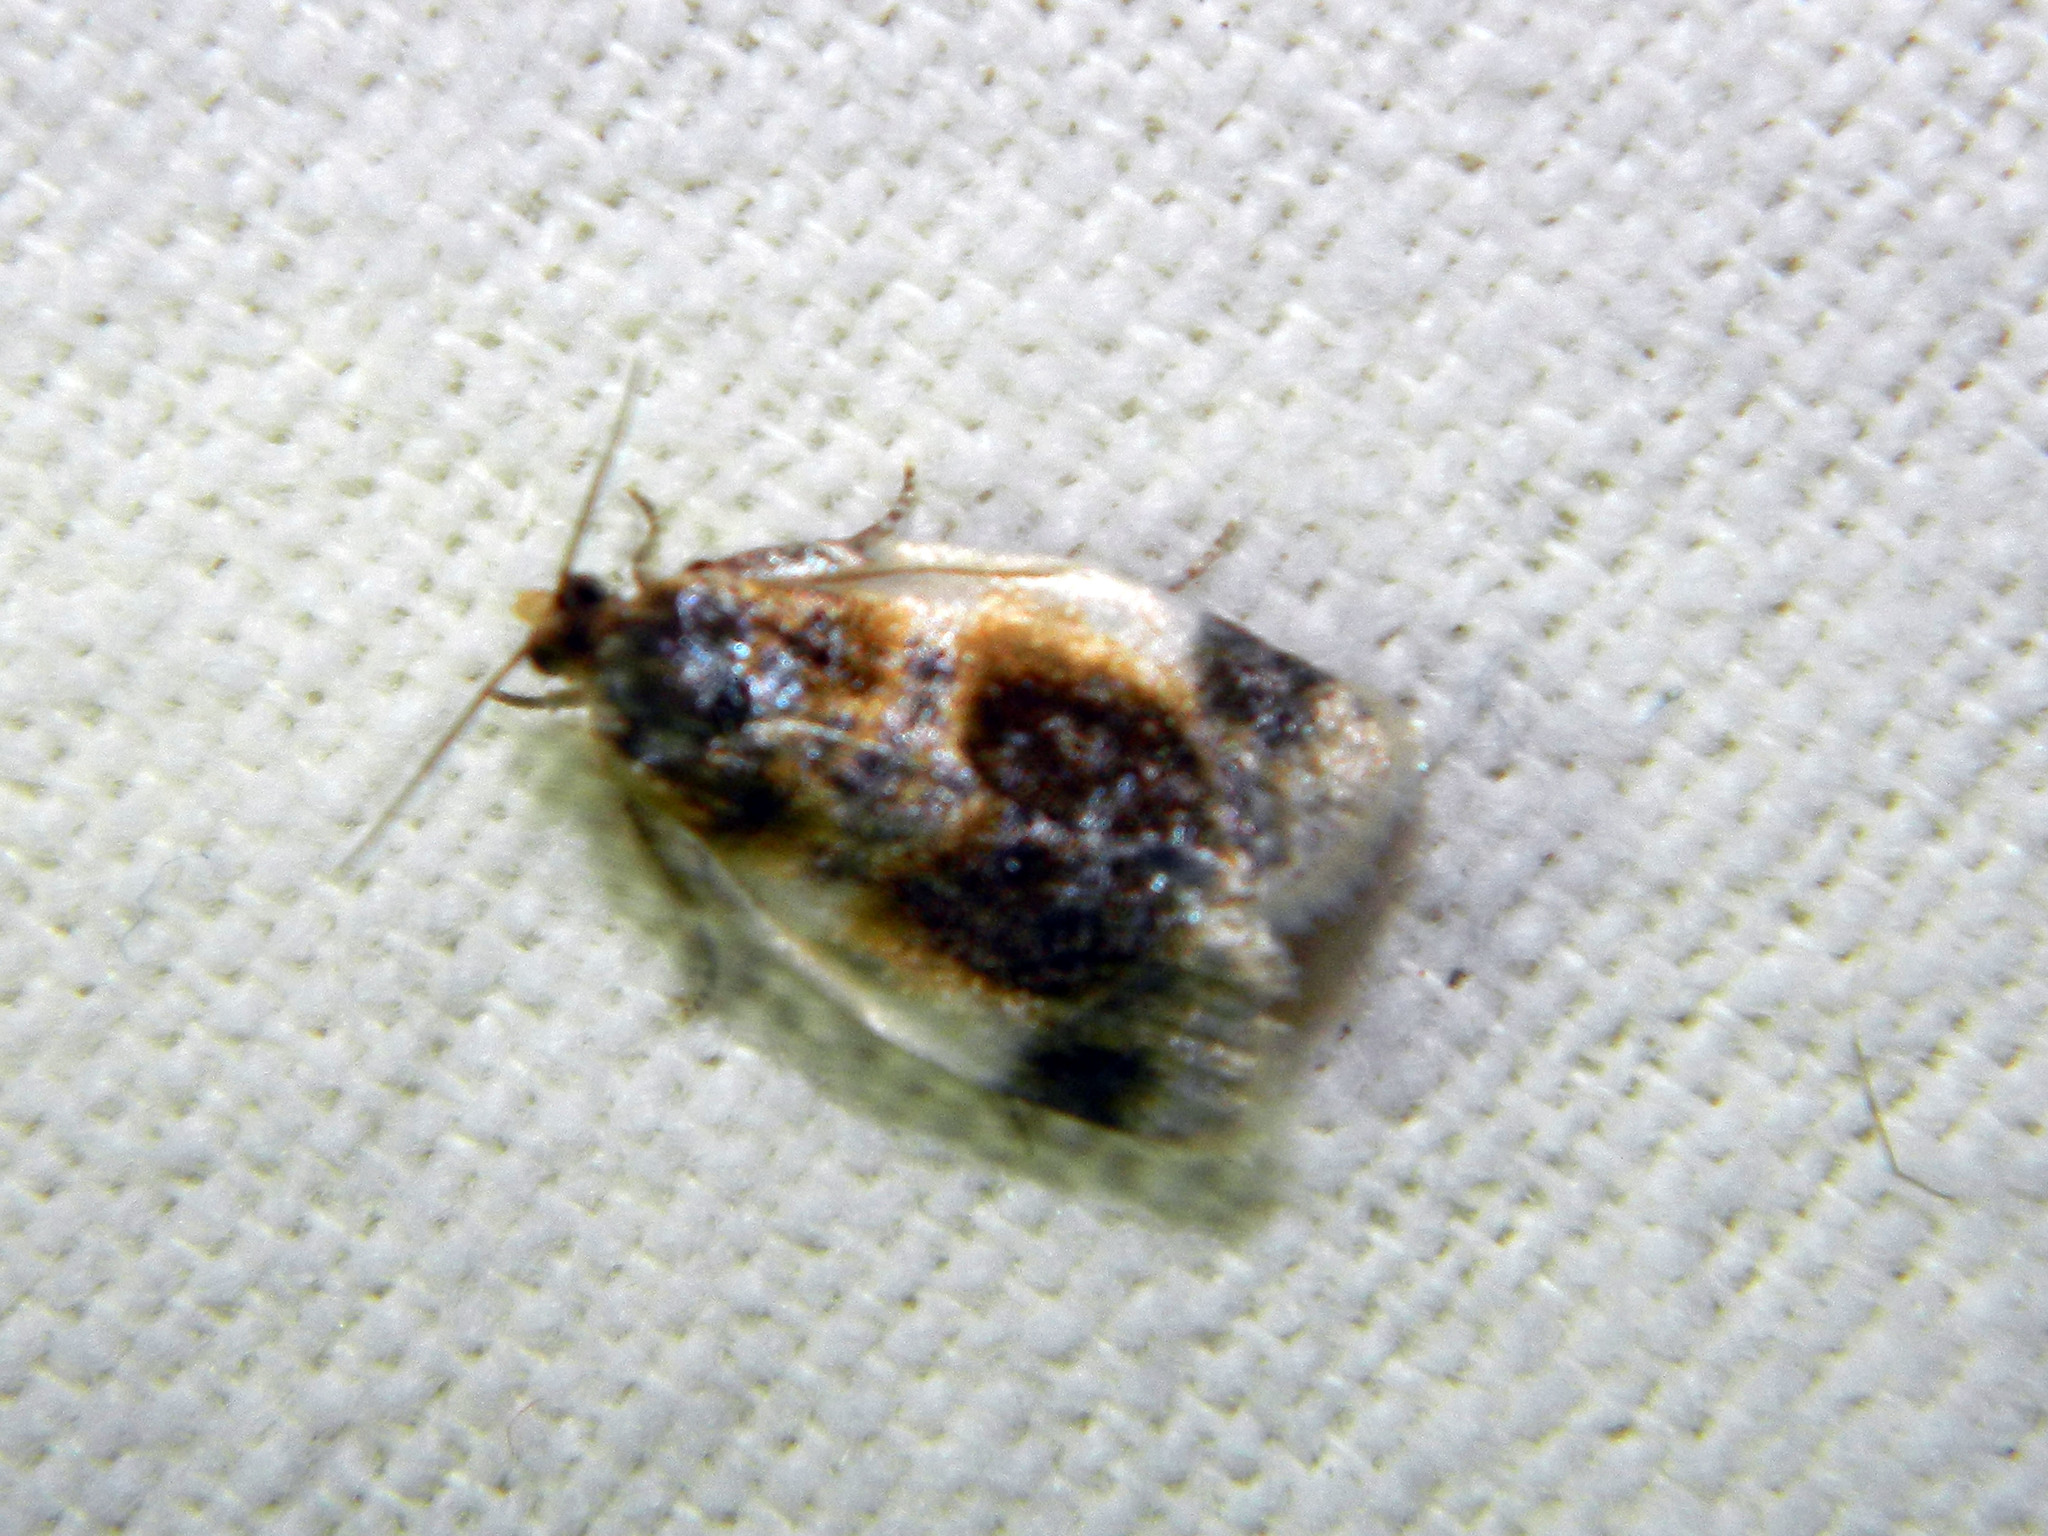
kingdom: Animalia
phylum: Arthropoda
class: Insecta
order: Lepidoptera
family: Tortricidae
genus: Clepsis
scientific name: Clepsis melaleucanus
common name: American apple tortrix
